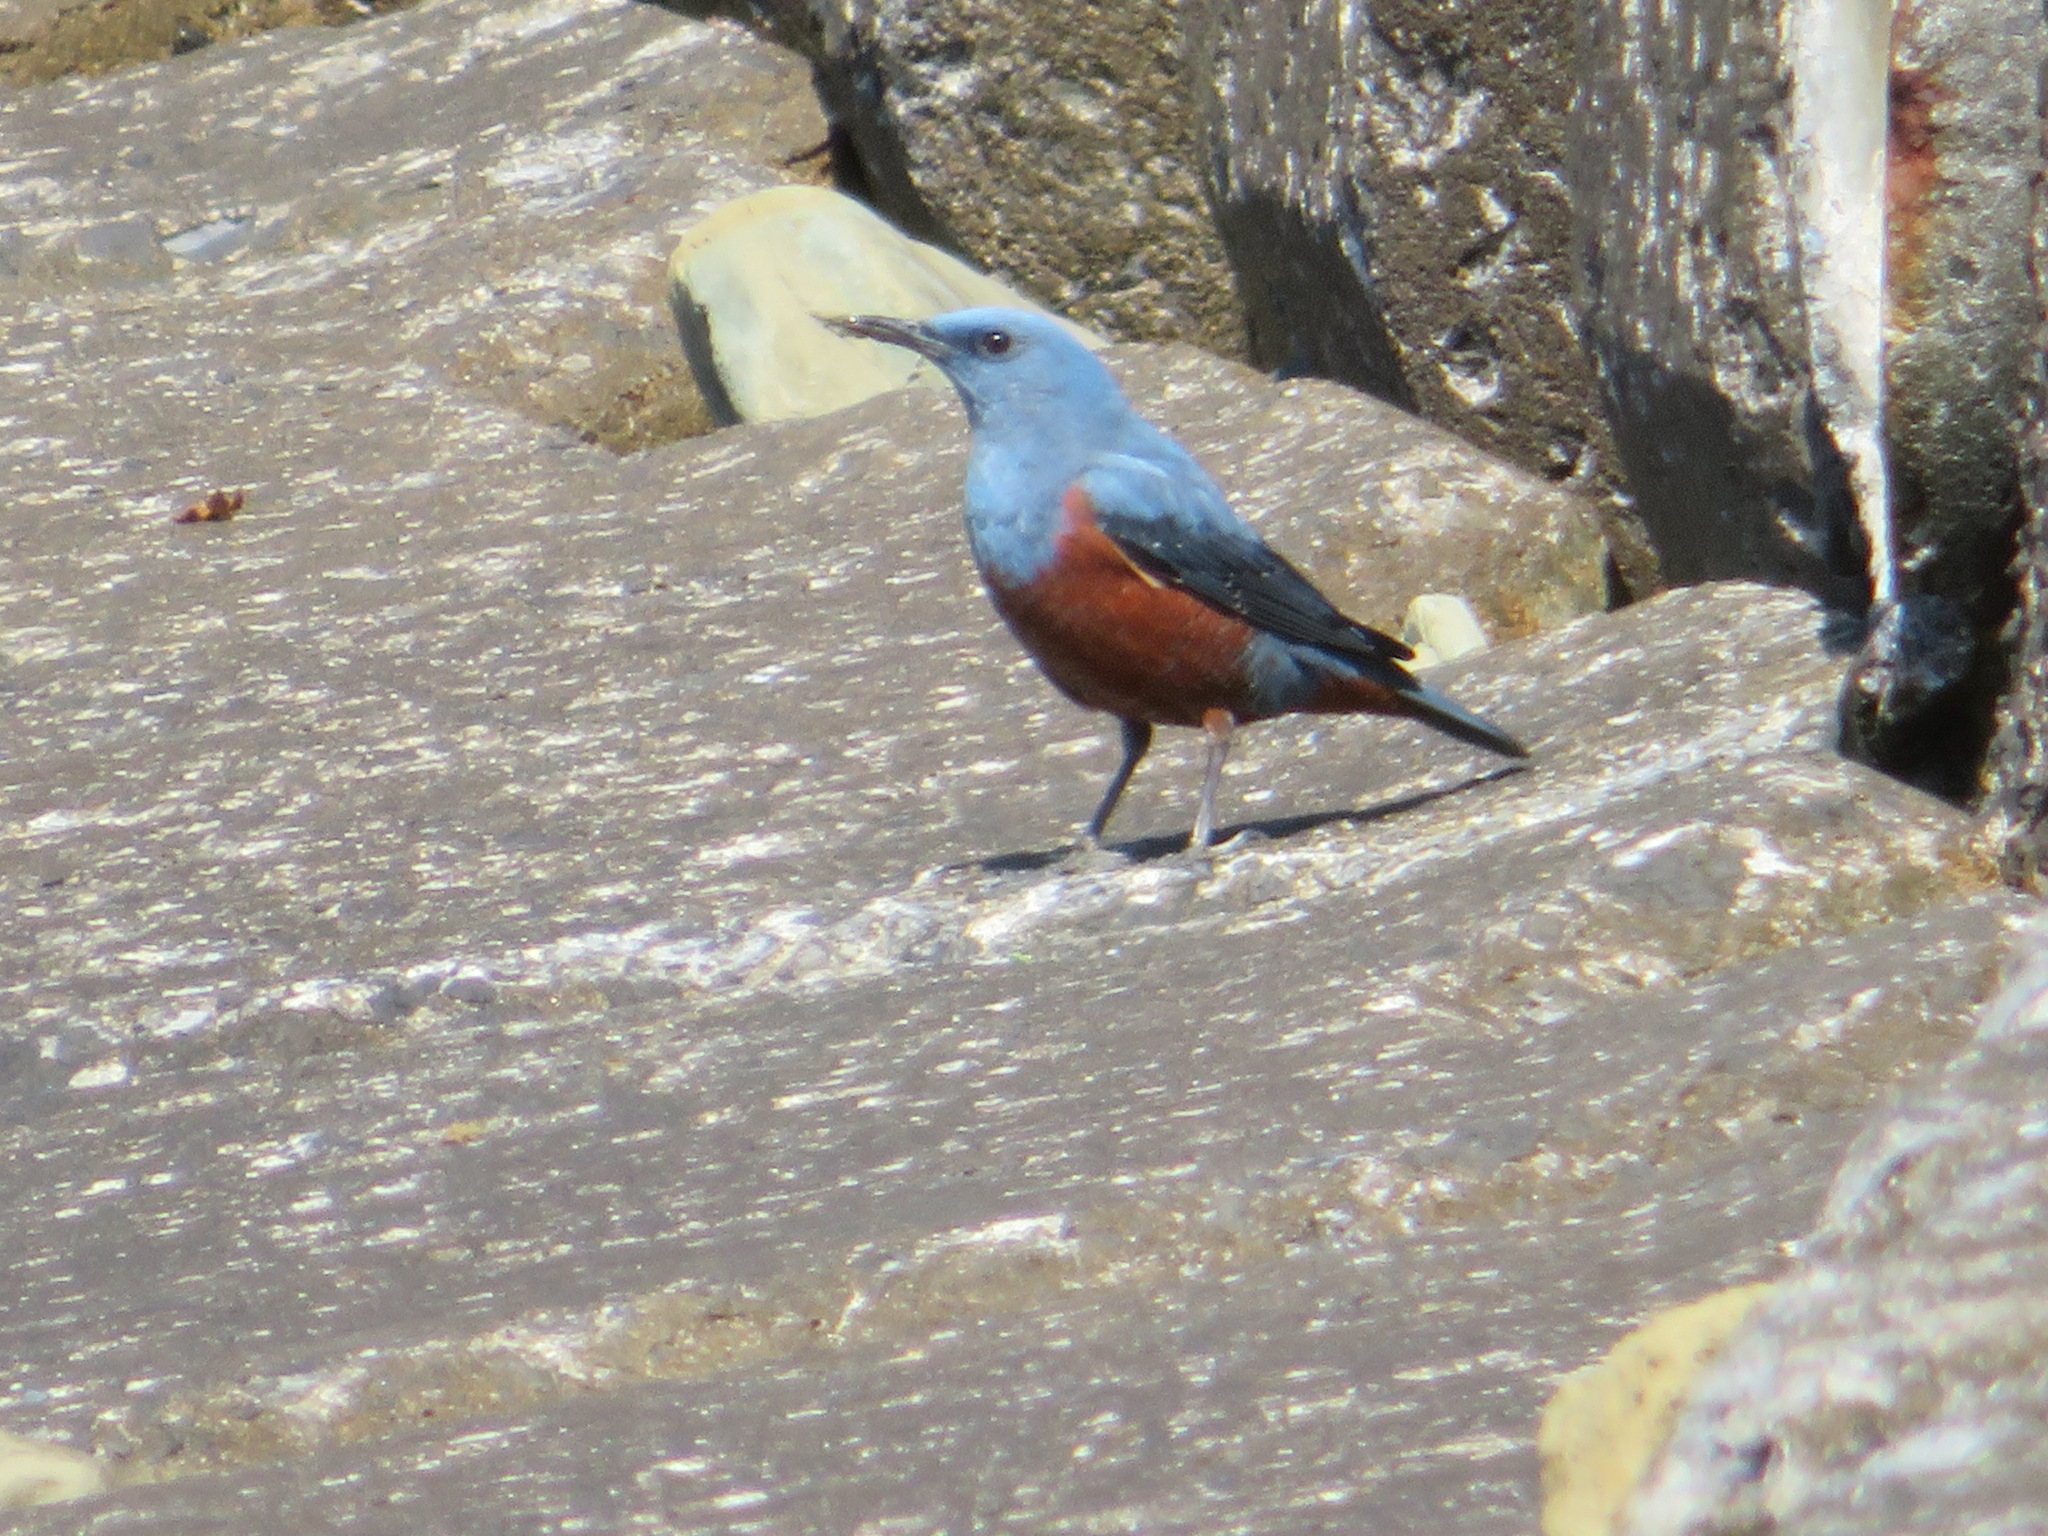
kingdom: Animalia
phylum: Chordata
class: Aves
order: Passeriformes
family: Muscicapidae
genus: Monticola
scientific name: Monticola solitarius
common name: Blue rock thrush
